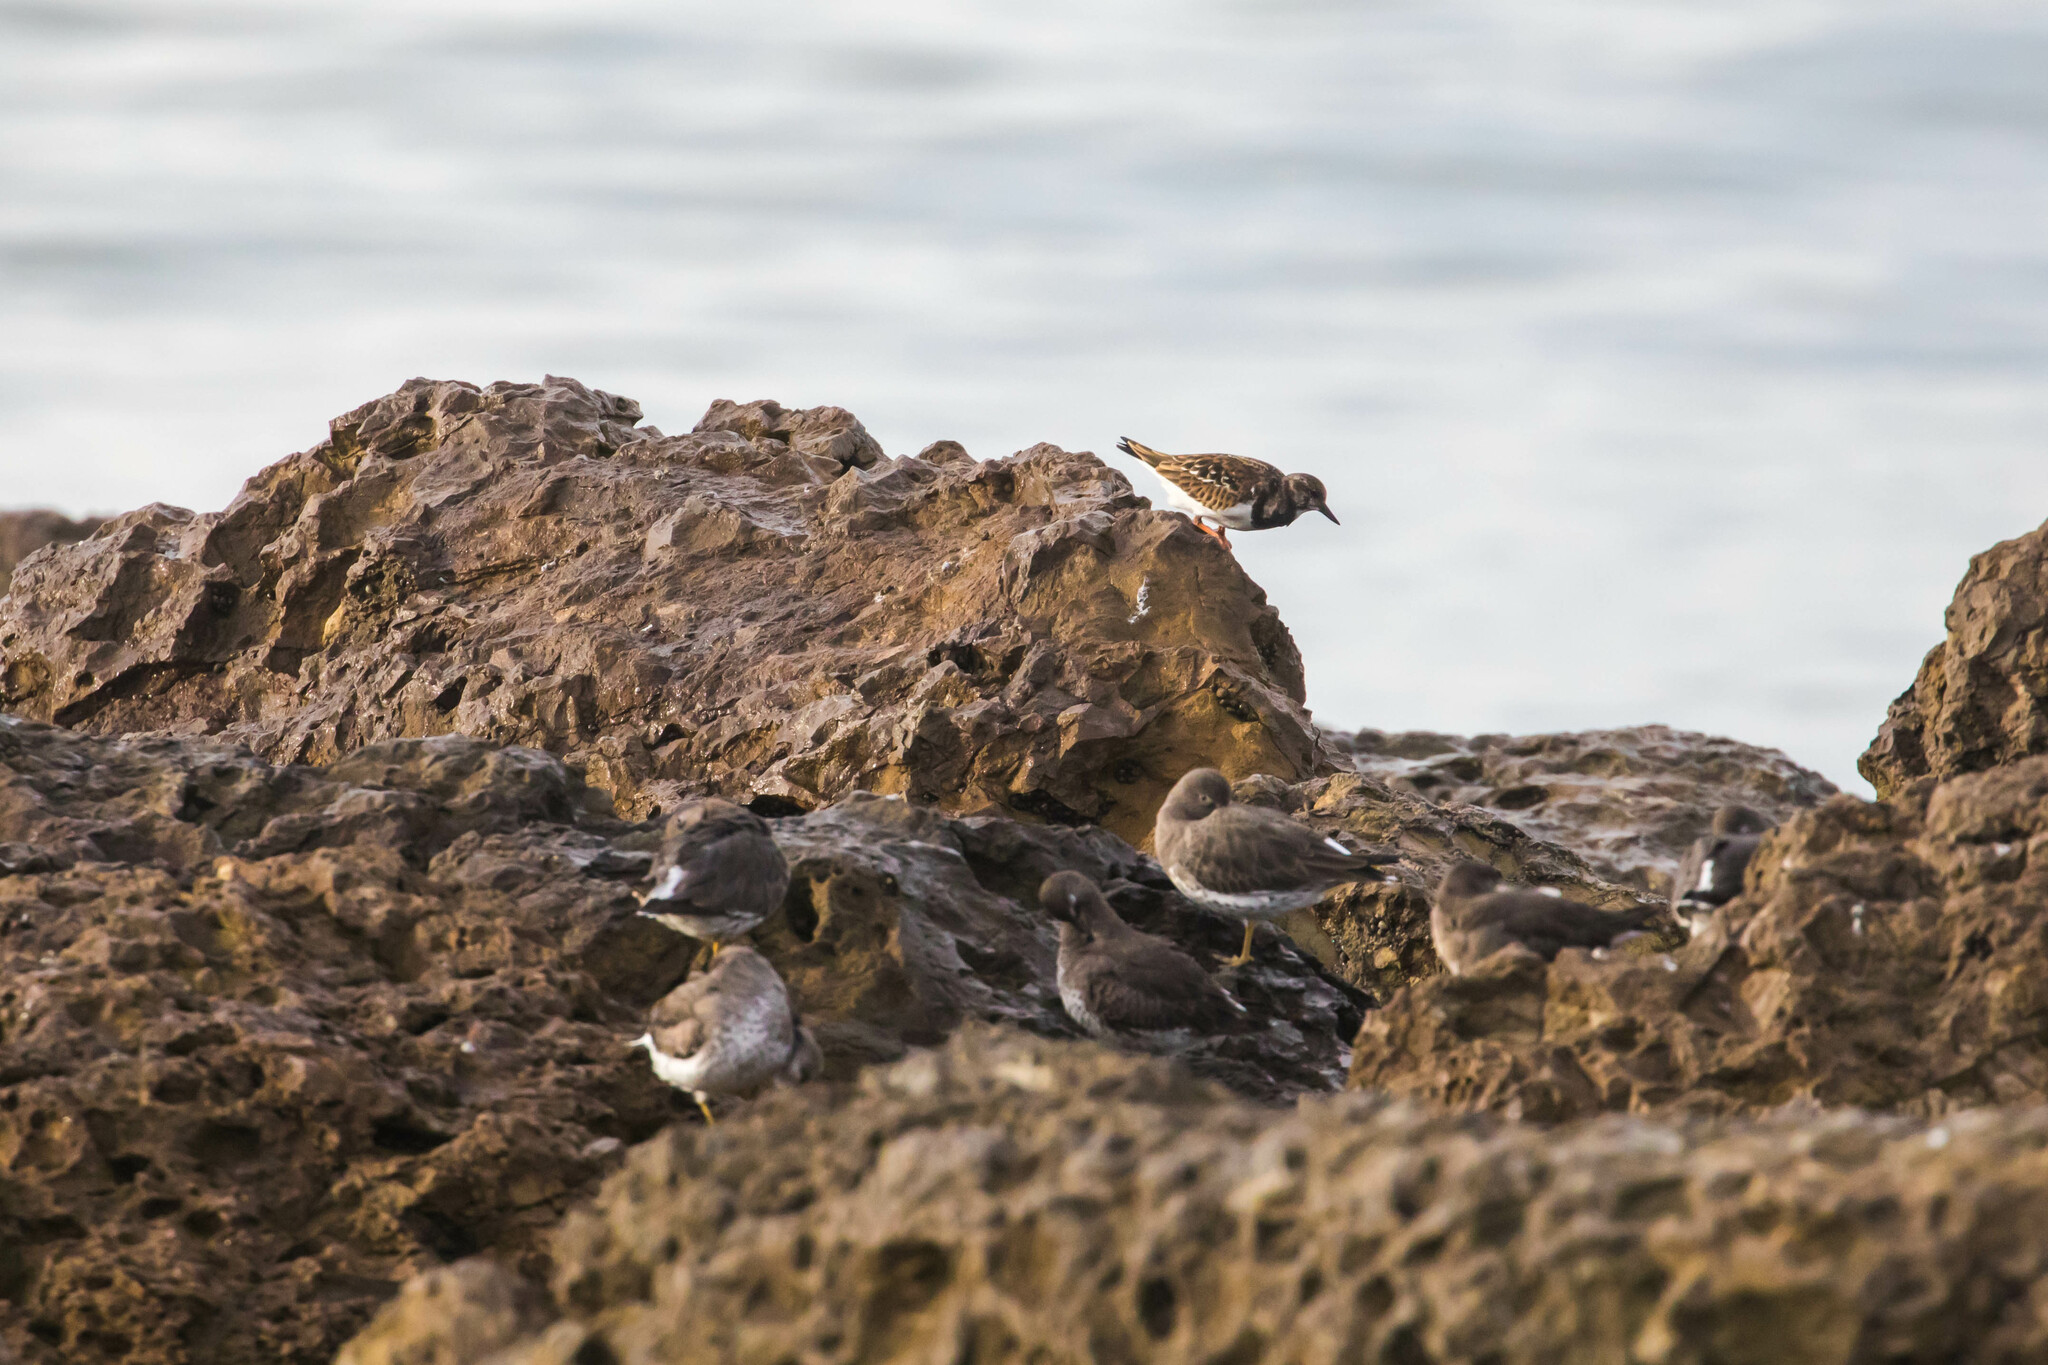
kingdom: Animalia
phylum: Chordata
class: Aves
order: Charadriiformes
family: Scolopacidae
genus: Arenaria
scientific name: Arenaria interpres
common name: Ruddy turnstone
